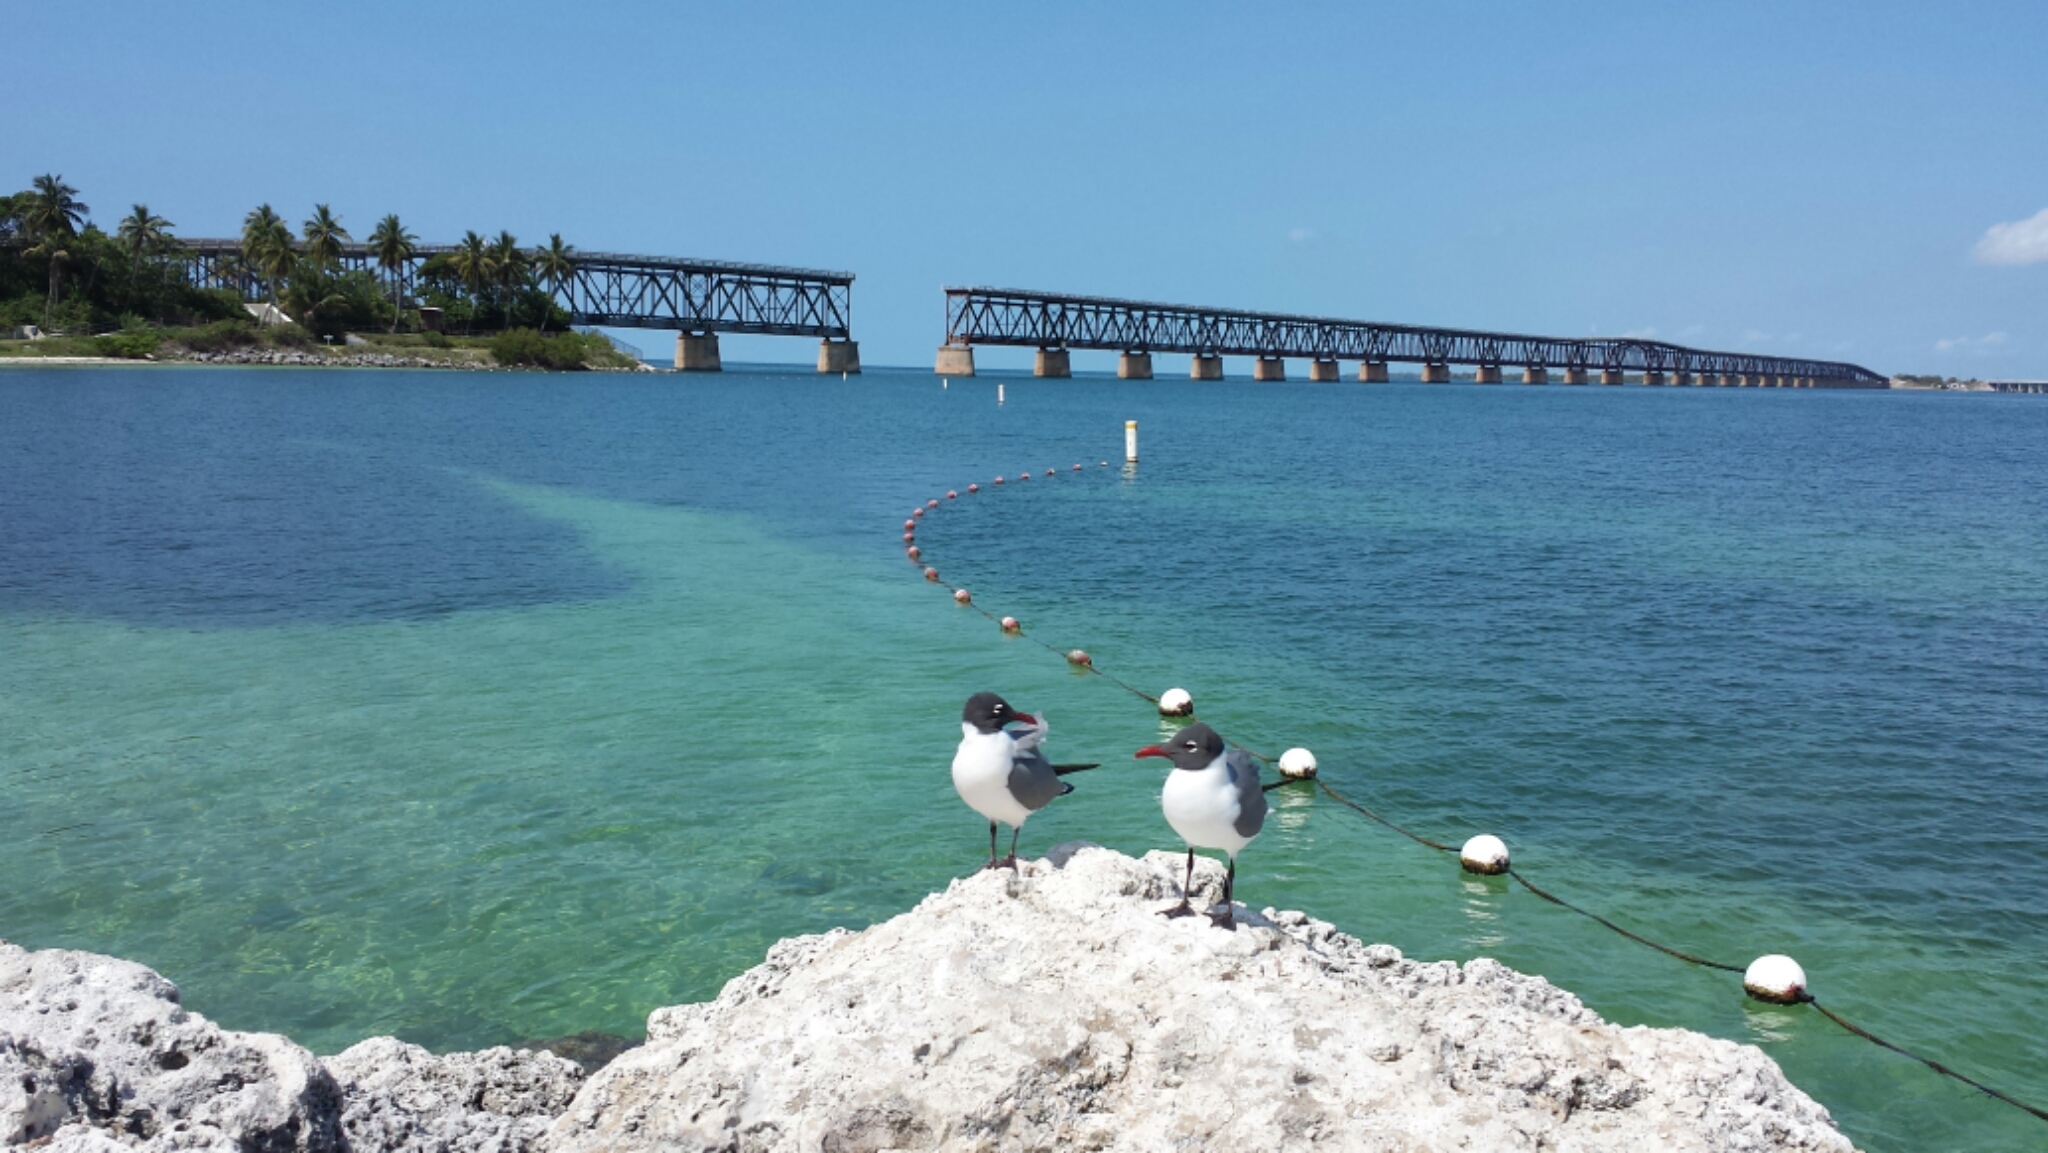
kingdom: Animalia
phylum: Chordata
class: Aves
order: Charadriiformes
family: Laridae
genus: Leucophaeus
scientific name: Leucophaeus atricilla
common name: Laughing gull
